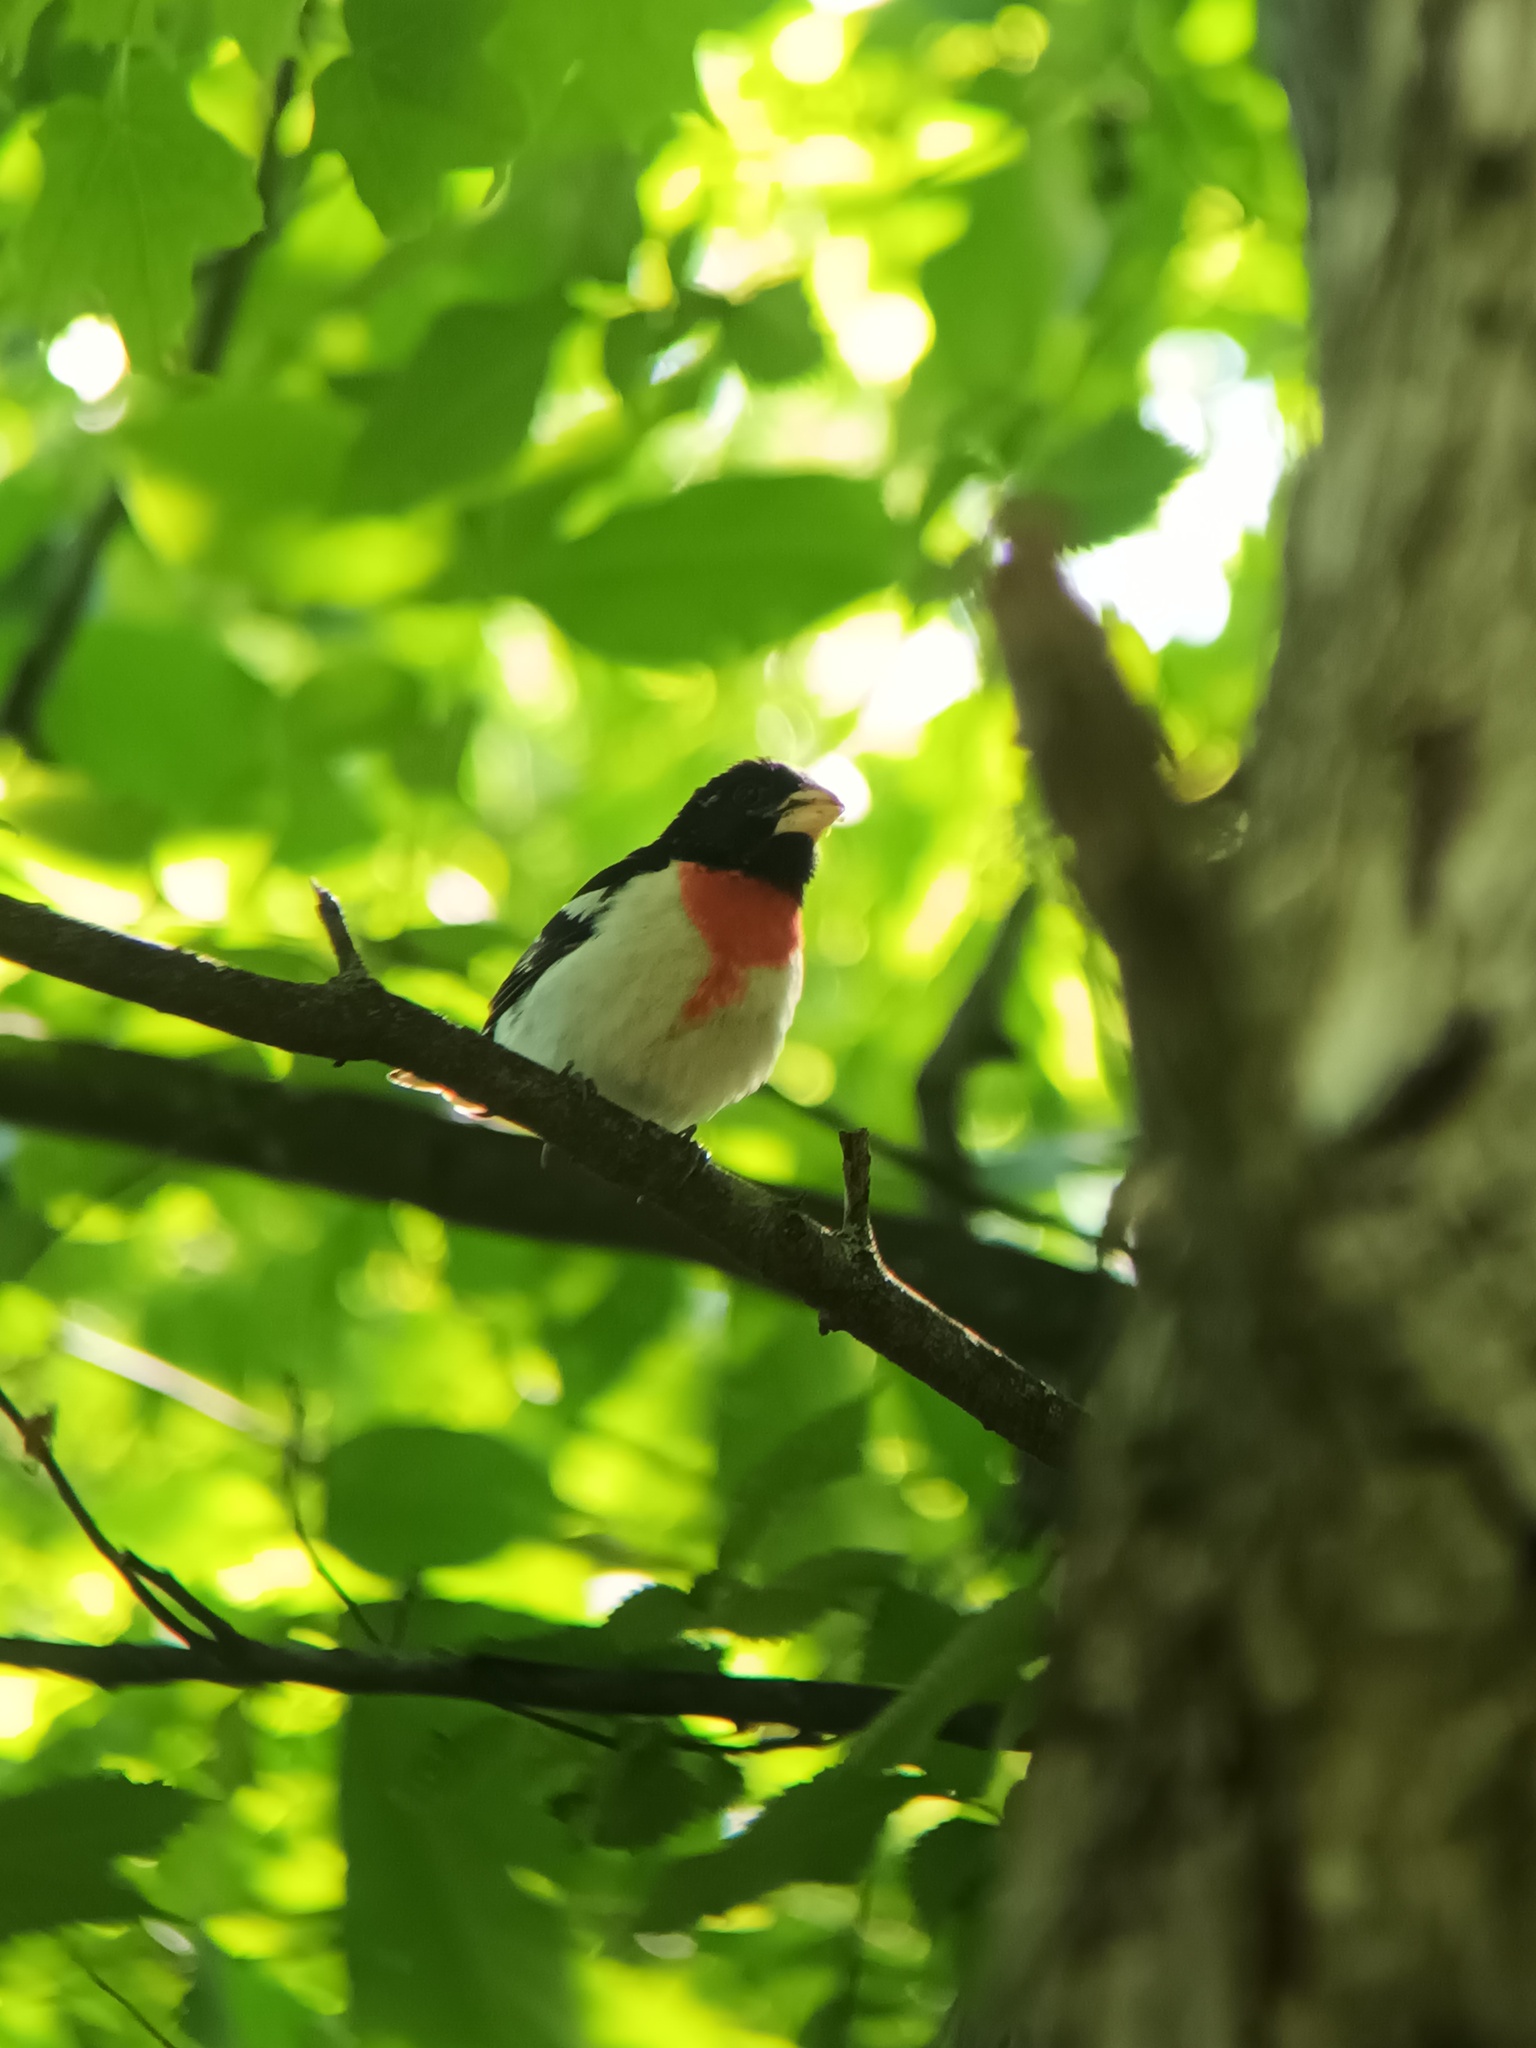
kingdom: Animalia
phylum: Chordata
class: Aves
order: Passeriformes
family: Cardinalidae
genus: Pheucticus
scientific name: Pheucticus ludovicianus
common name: Rose-breasted grosbeak
